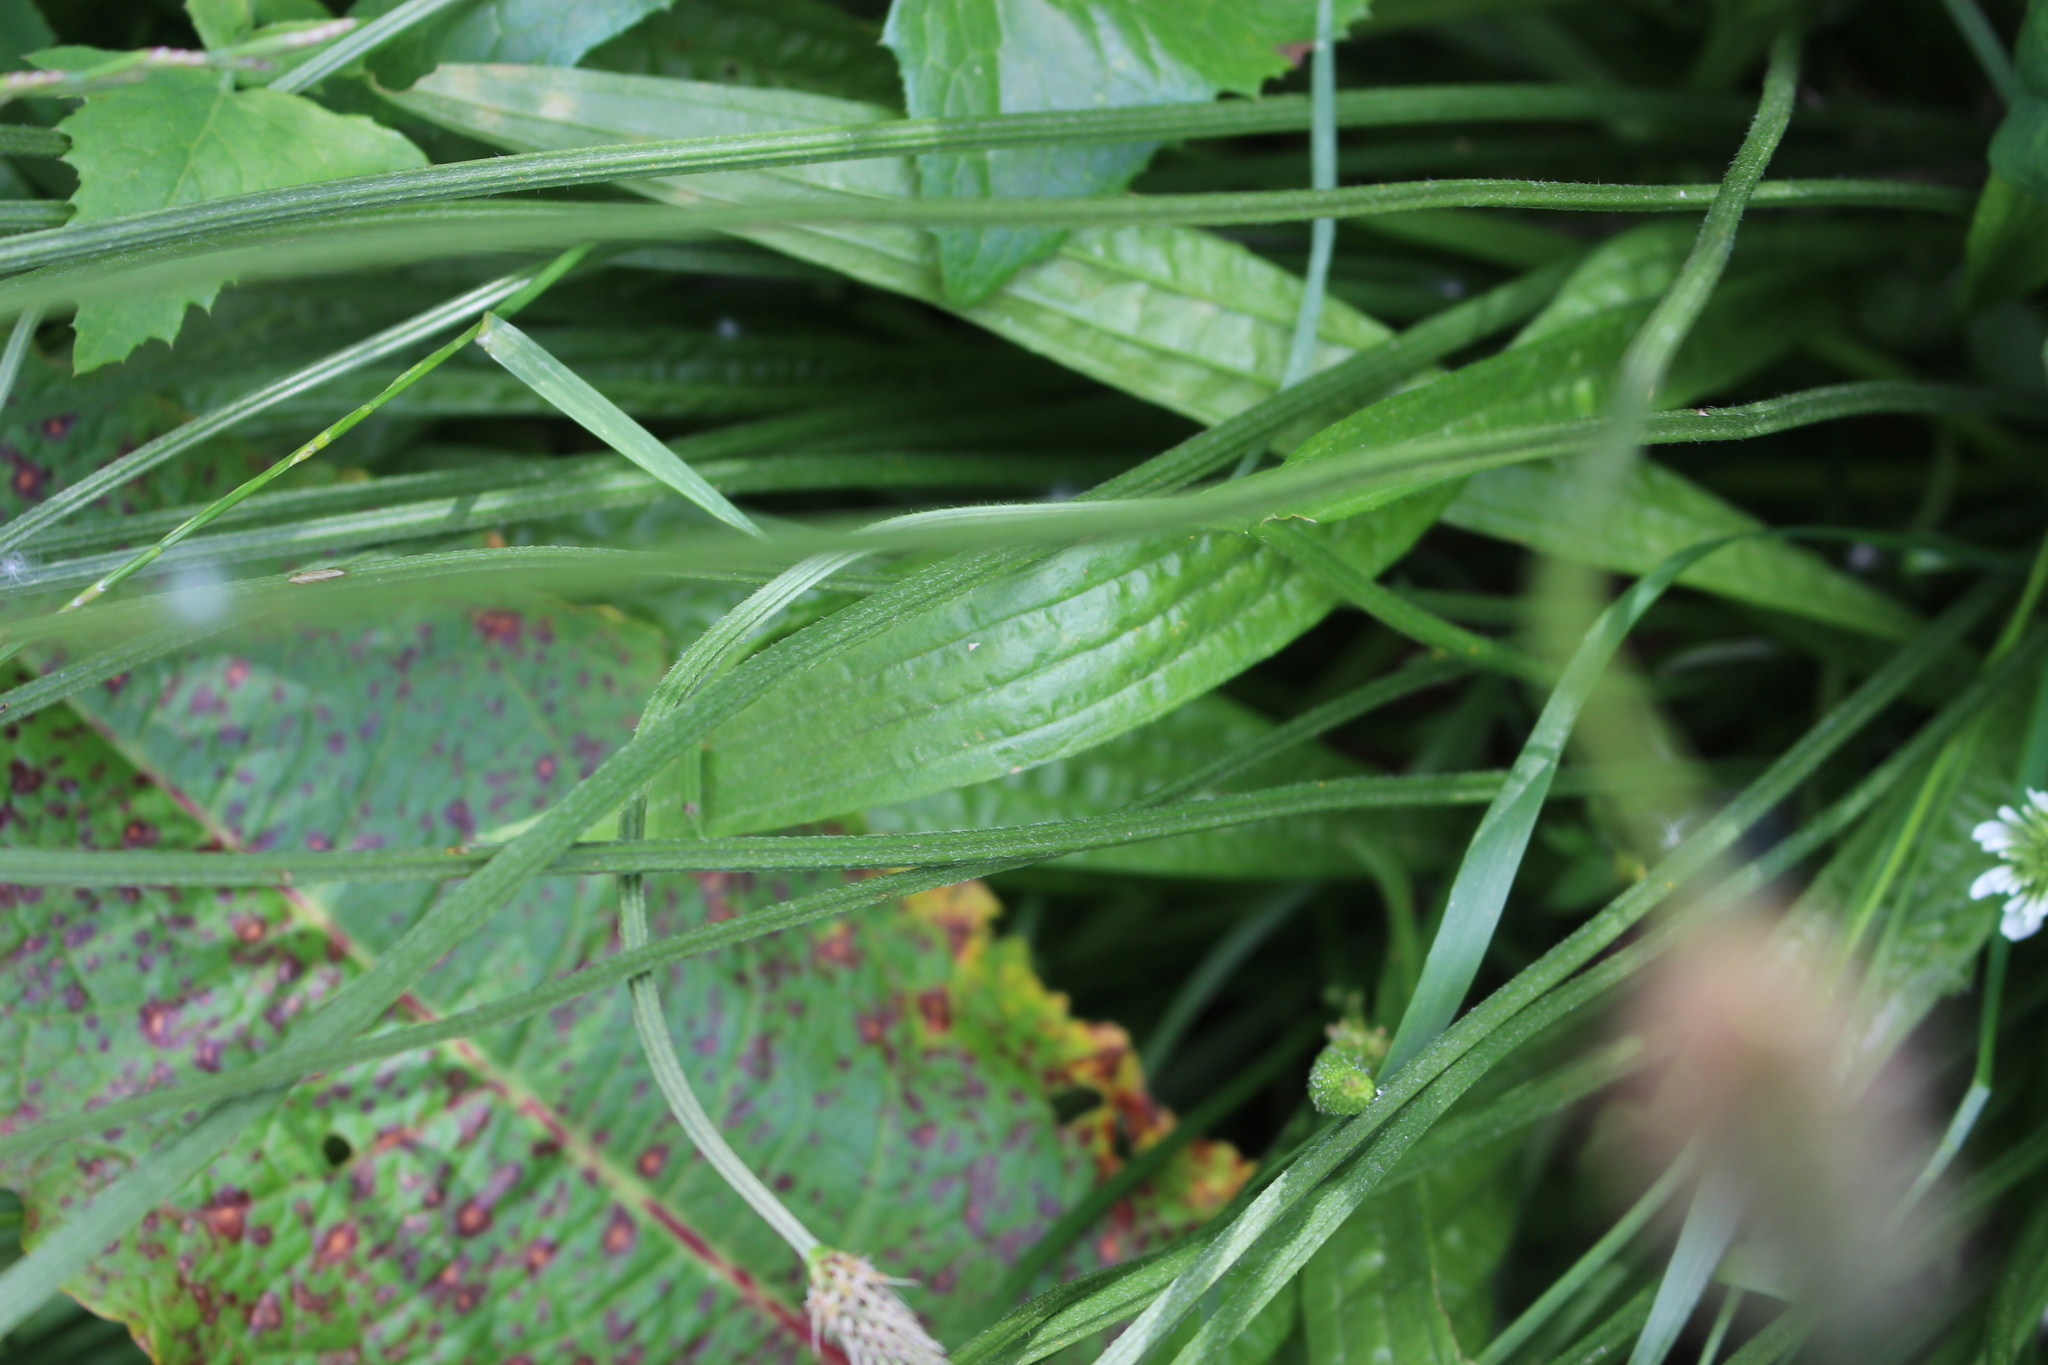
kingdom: Plantae
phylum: Tracheophyta
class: Magnoliopsida
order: Lamiales
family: Plantaginaceae
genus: Plantago
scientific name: Plantago lanceolata
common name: Ribwort plantain
